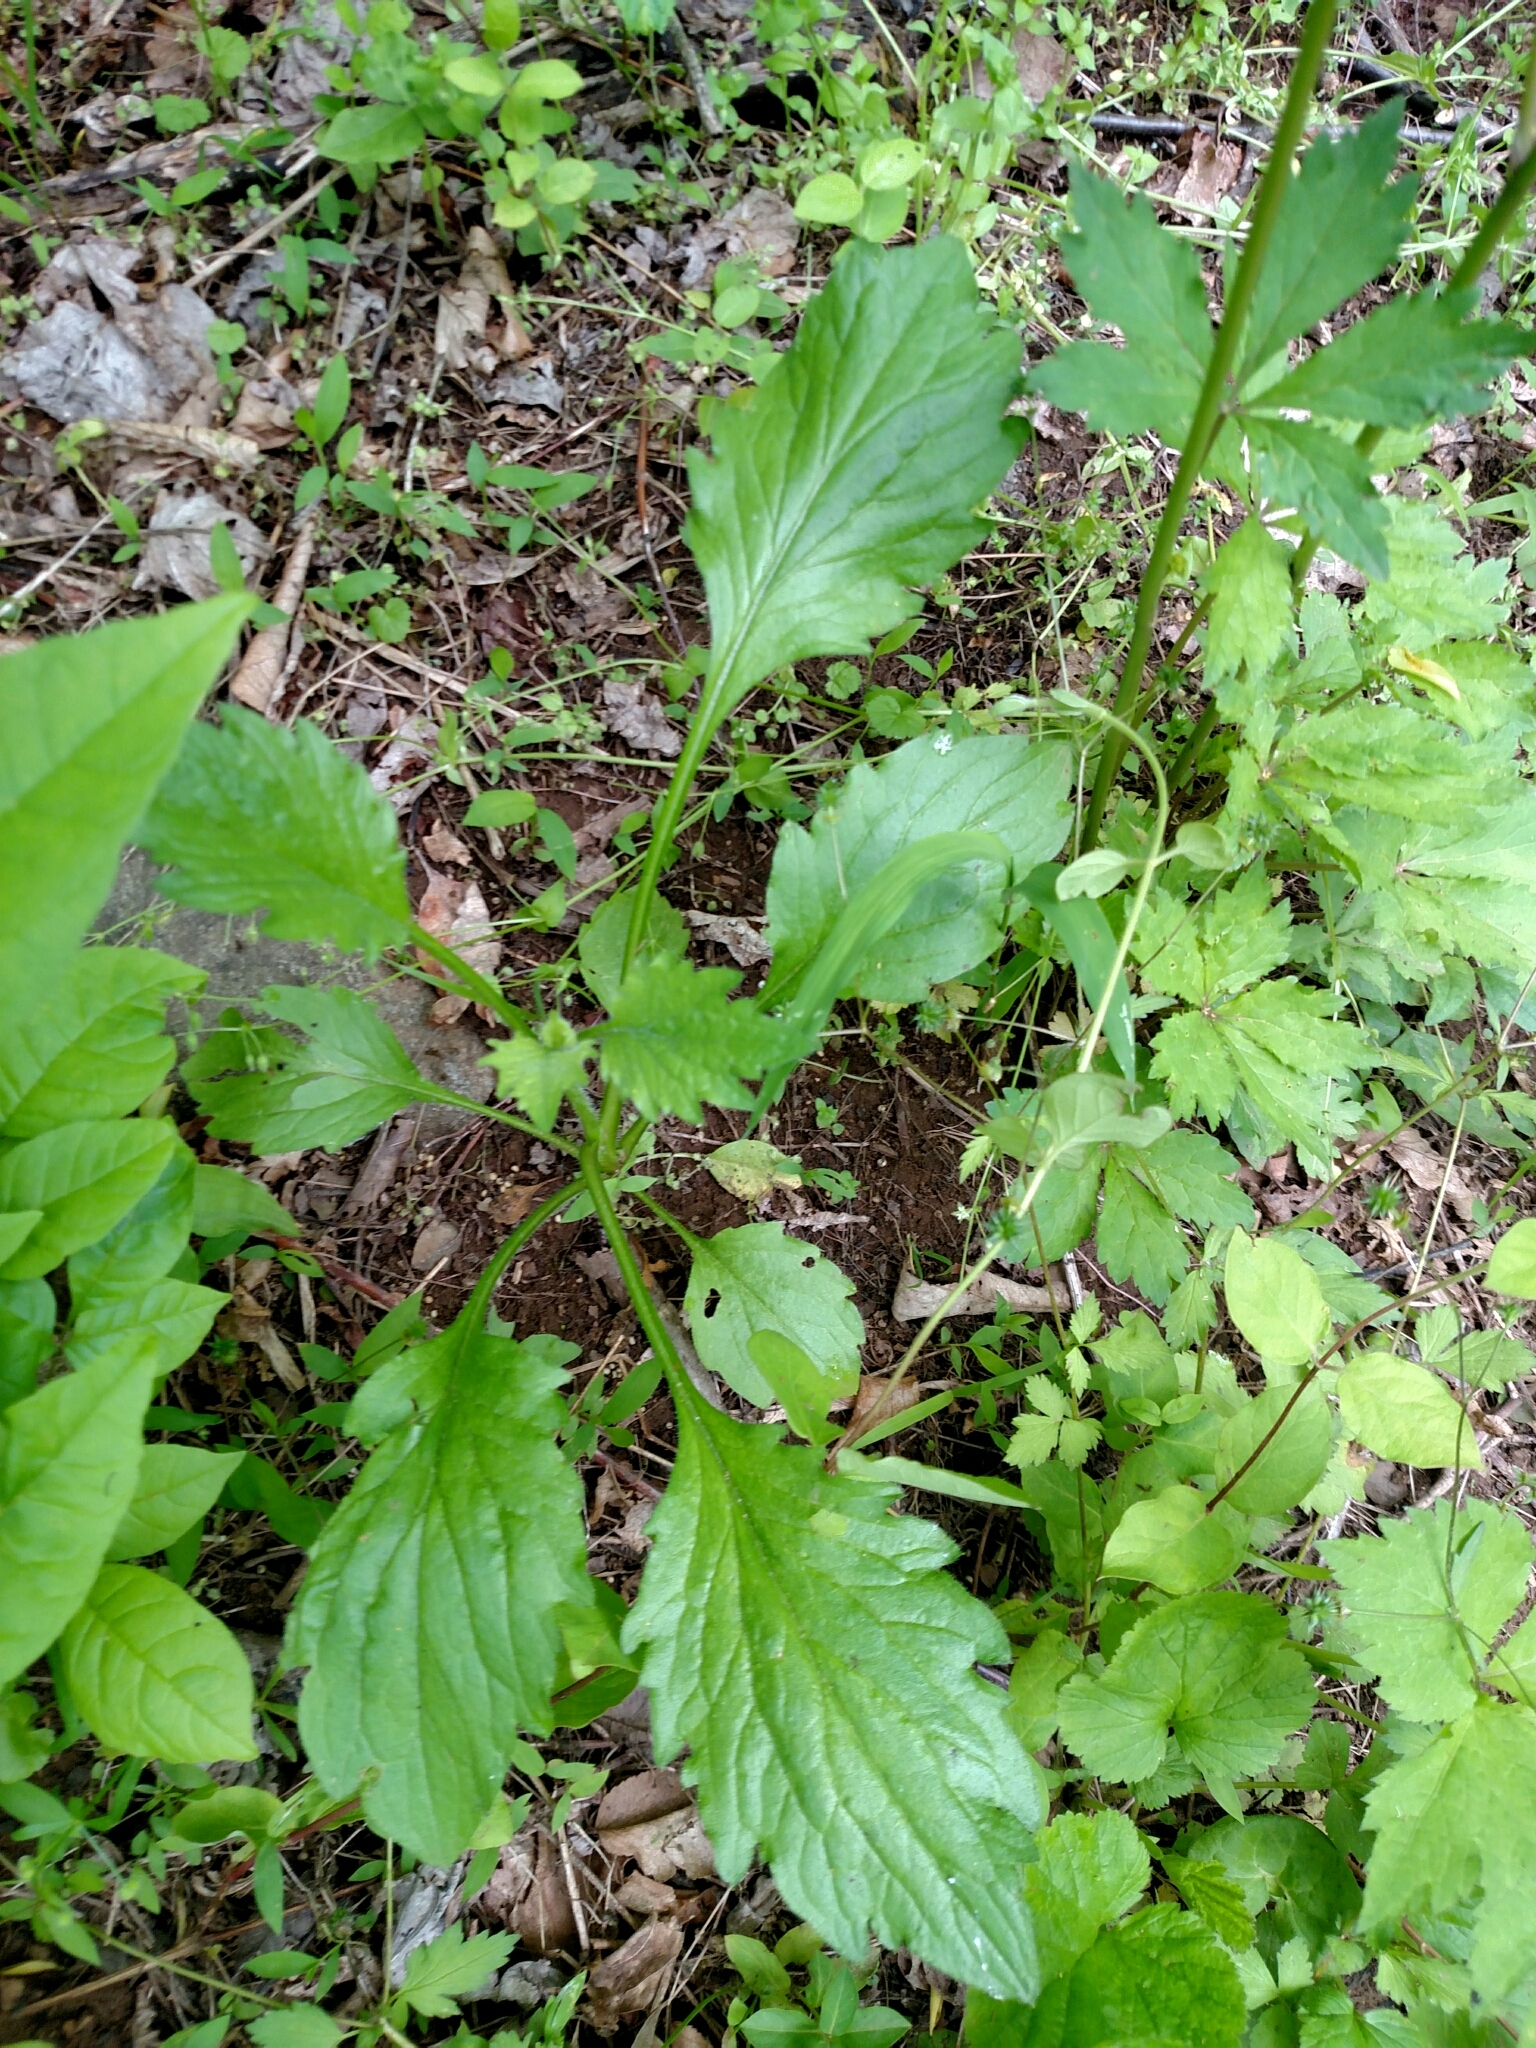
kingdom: Plantae
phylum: Tracheophyta
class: Magnoliopsida
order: Asterales
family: Asteraceae
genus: Erigeron
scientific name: Erigeron annuus
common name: Tall fleabane
